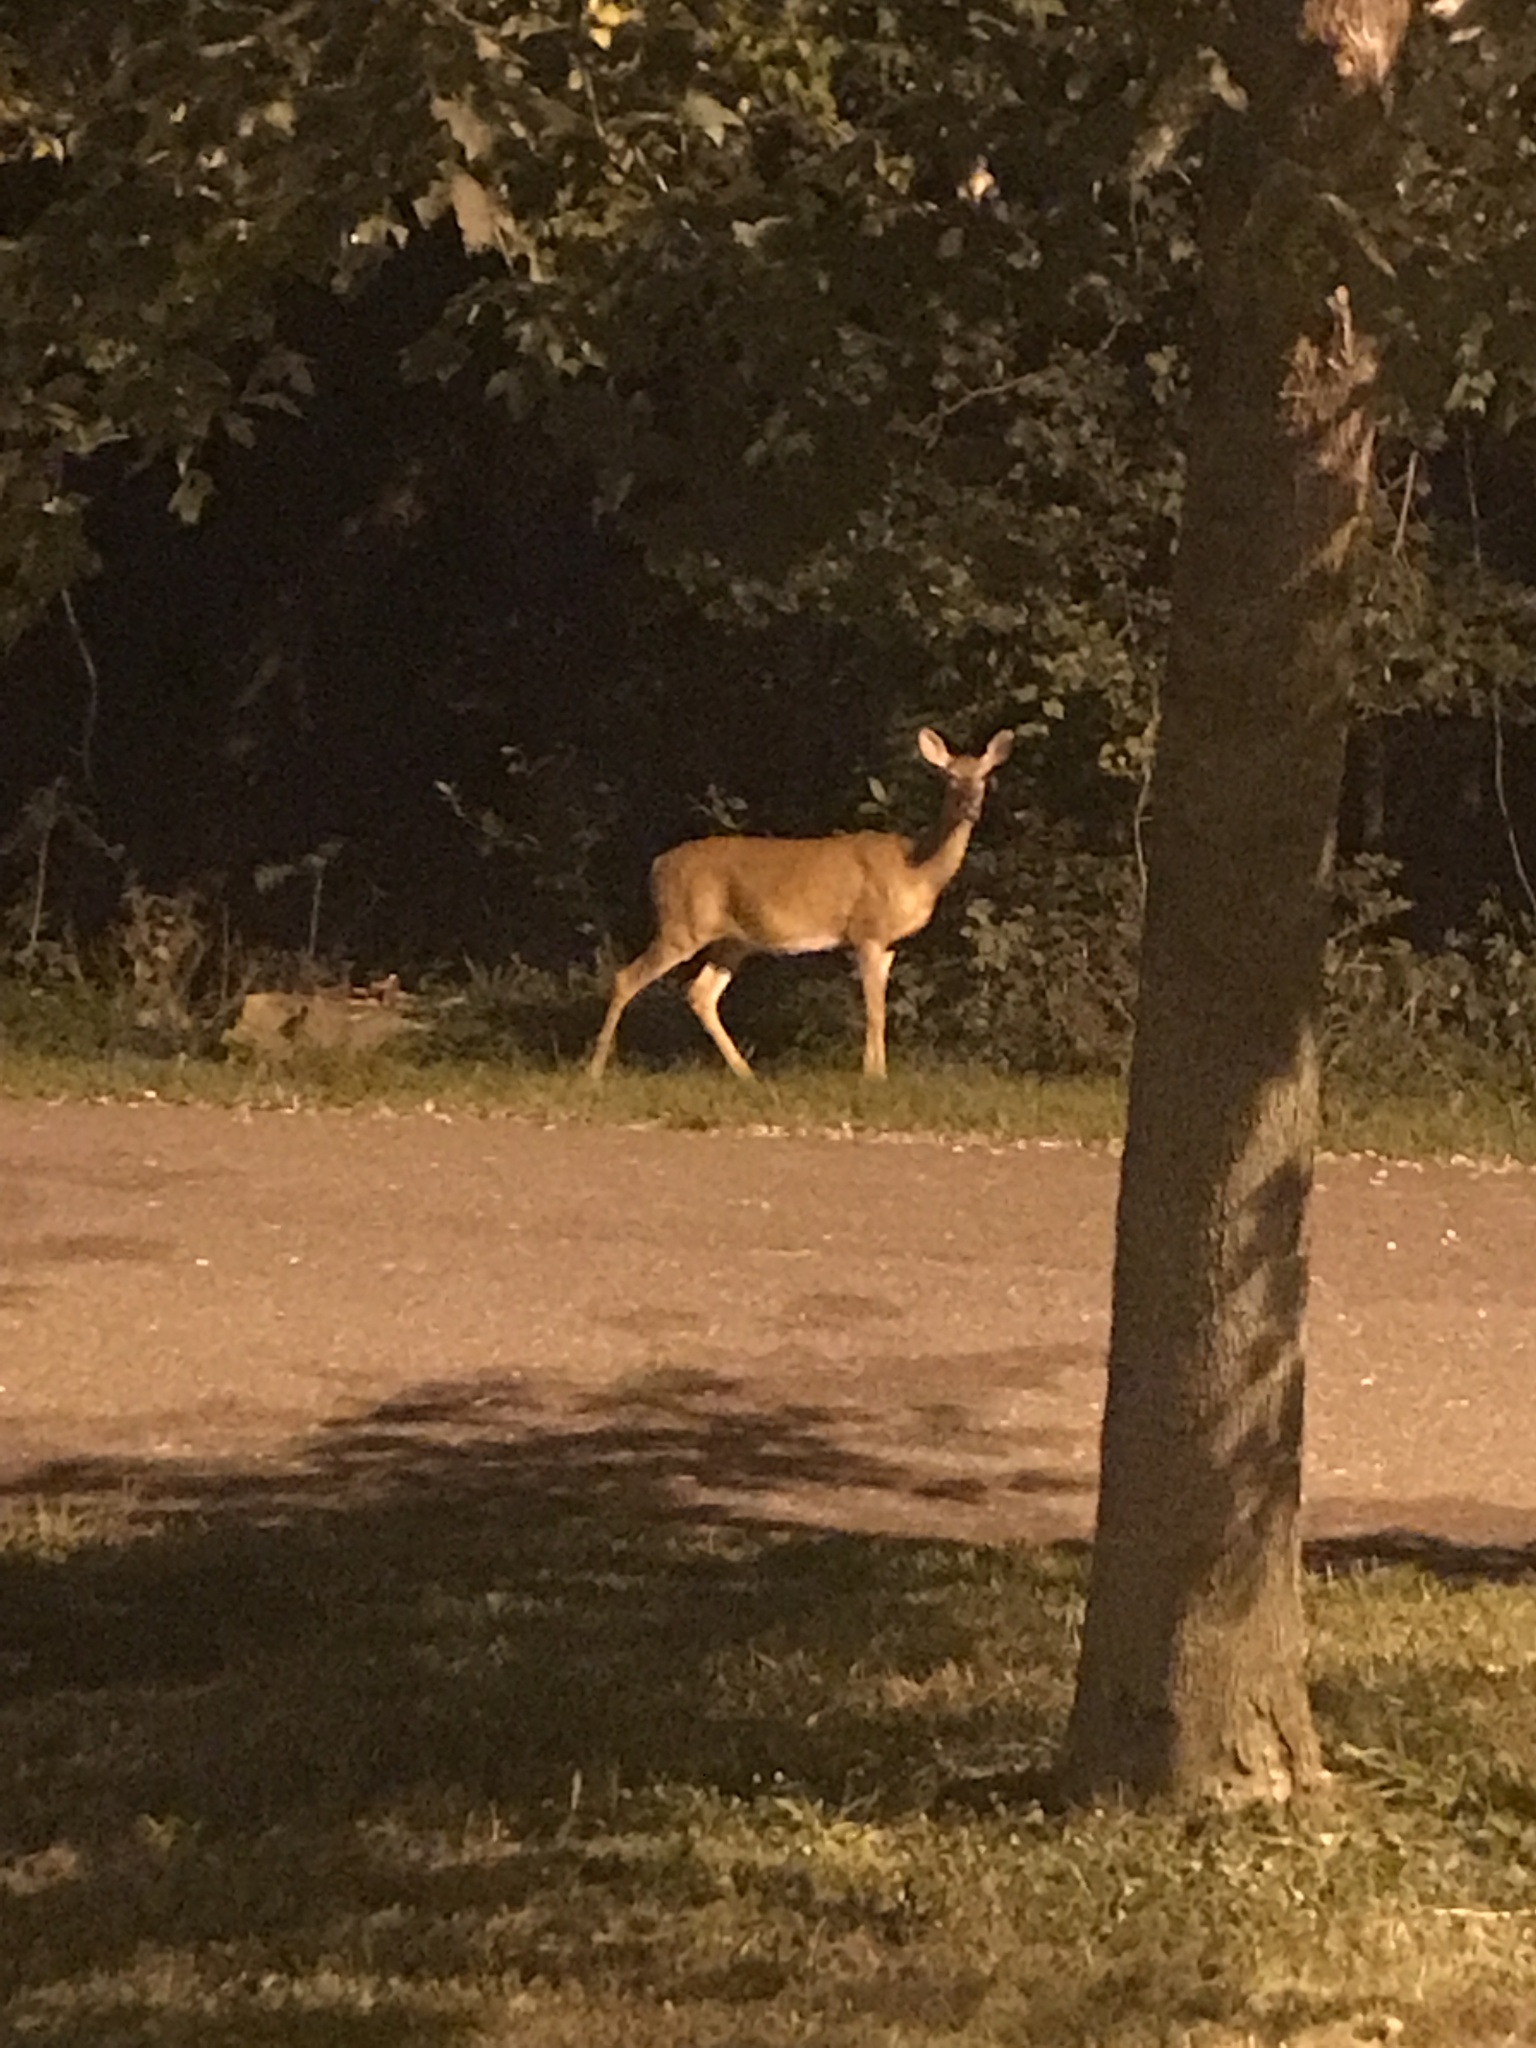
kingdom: Animalia
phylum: Chordata
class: Mammalia
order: Artiodactyla
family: Cervidae
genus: Odocoileus
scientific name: Odocoileus virginianus
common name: White-tailed deer
